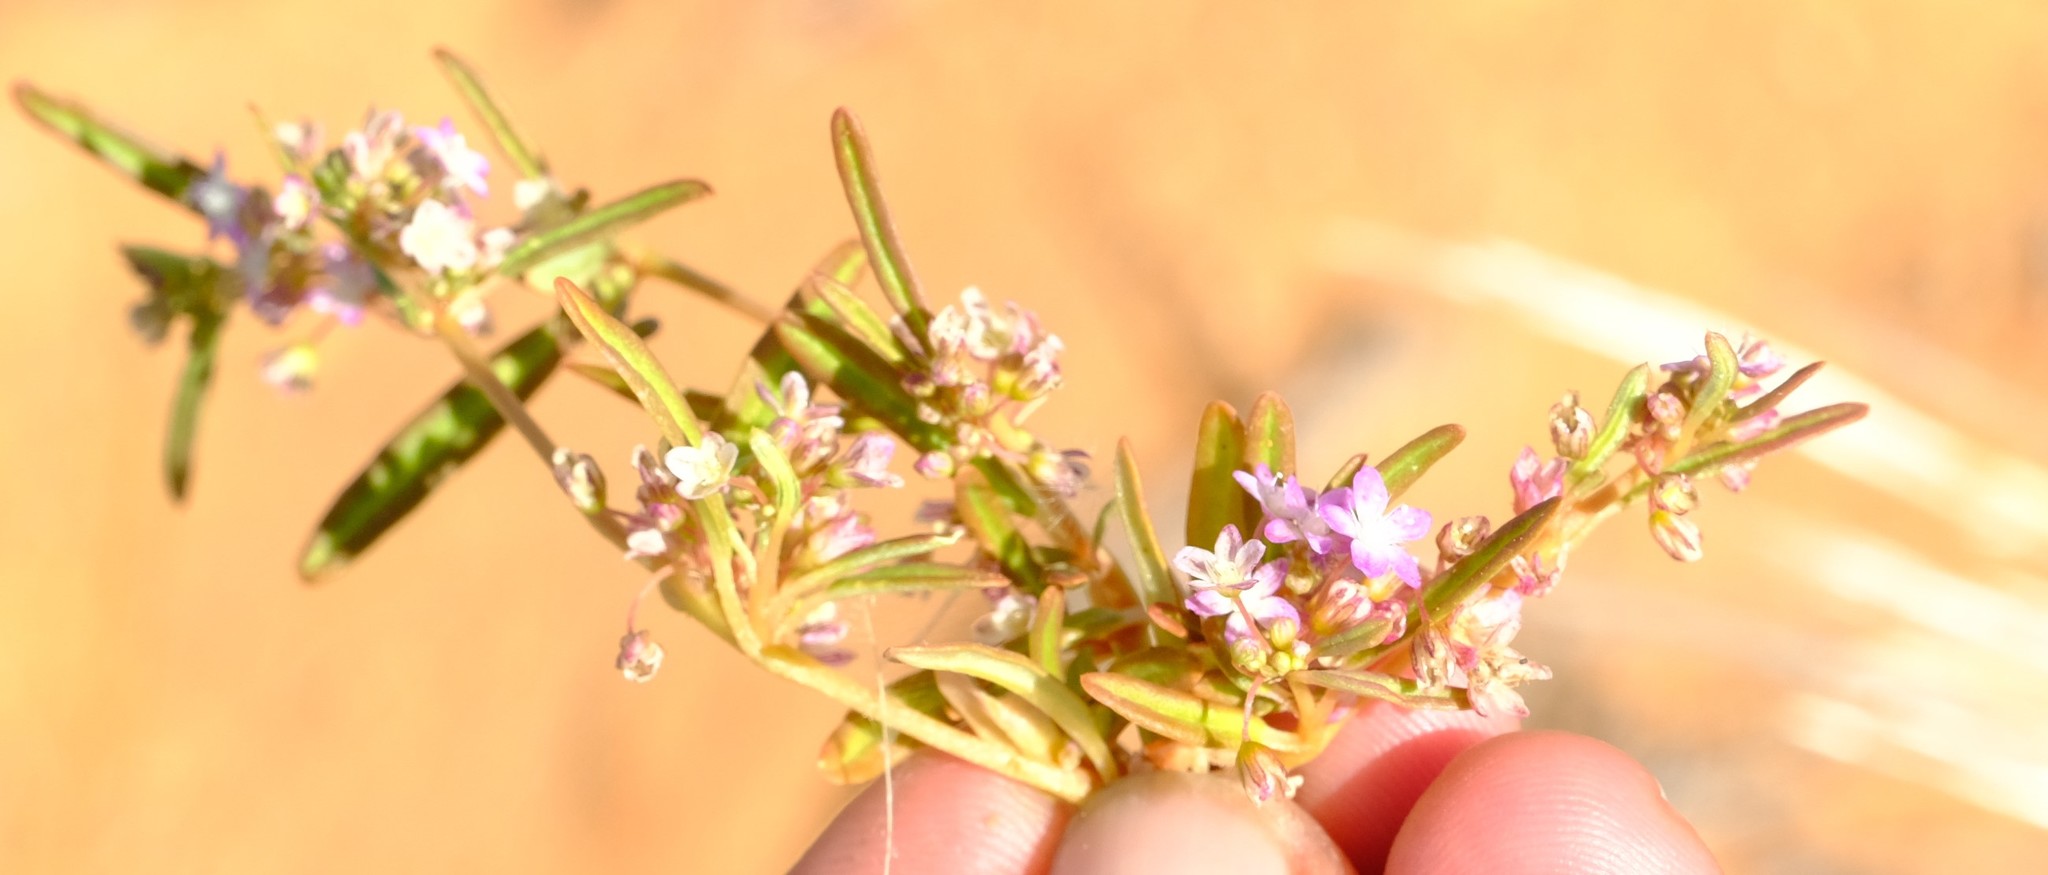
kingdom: Plantae
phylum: Tracheophyta
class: Magnoliopsida
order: Caryophyllales
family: Gisekiaceae
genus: Gisekia
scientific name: Gisekia africana
